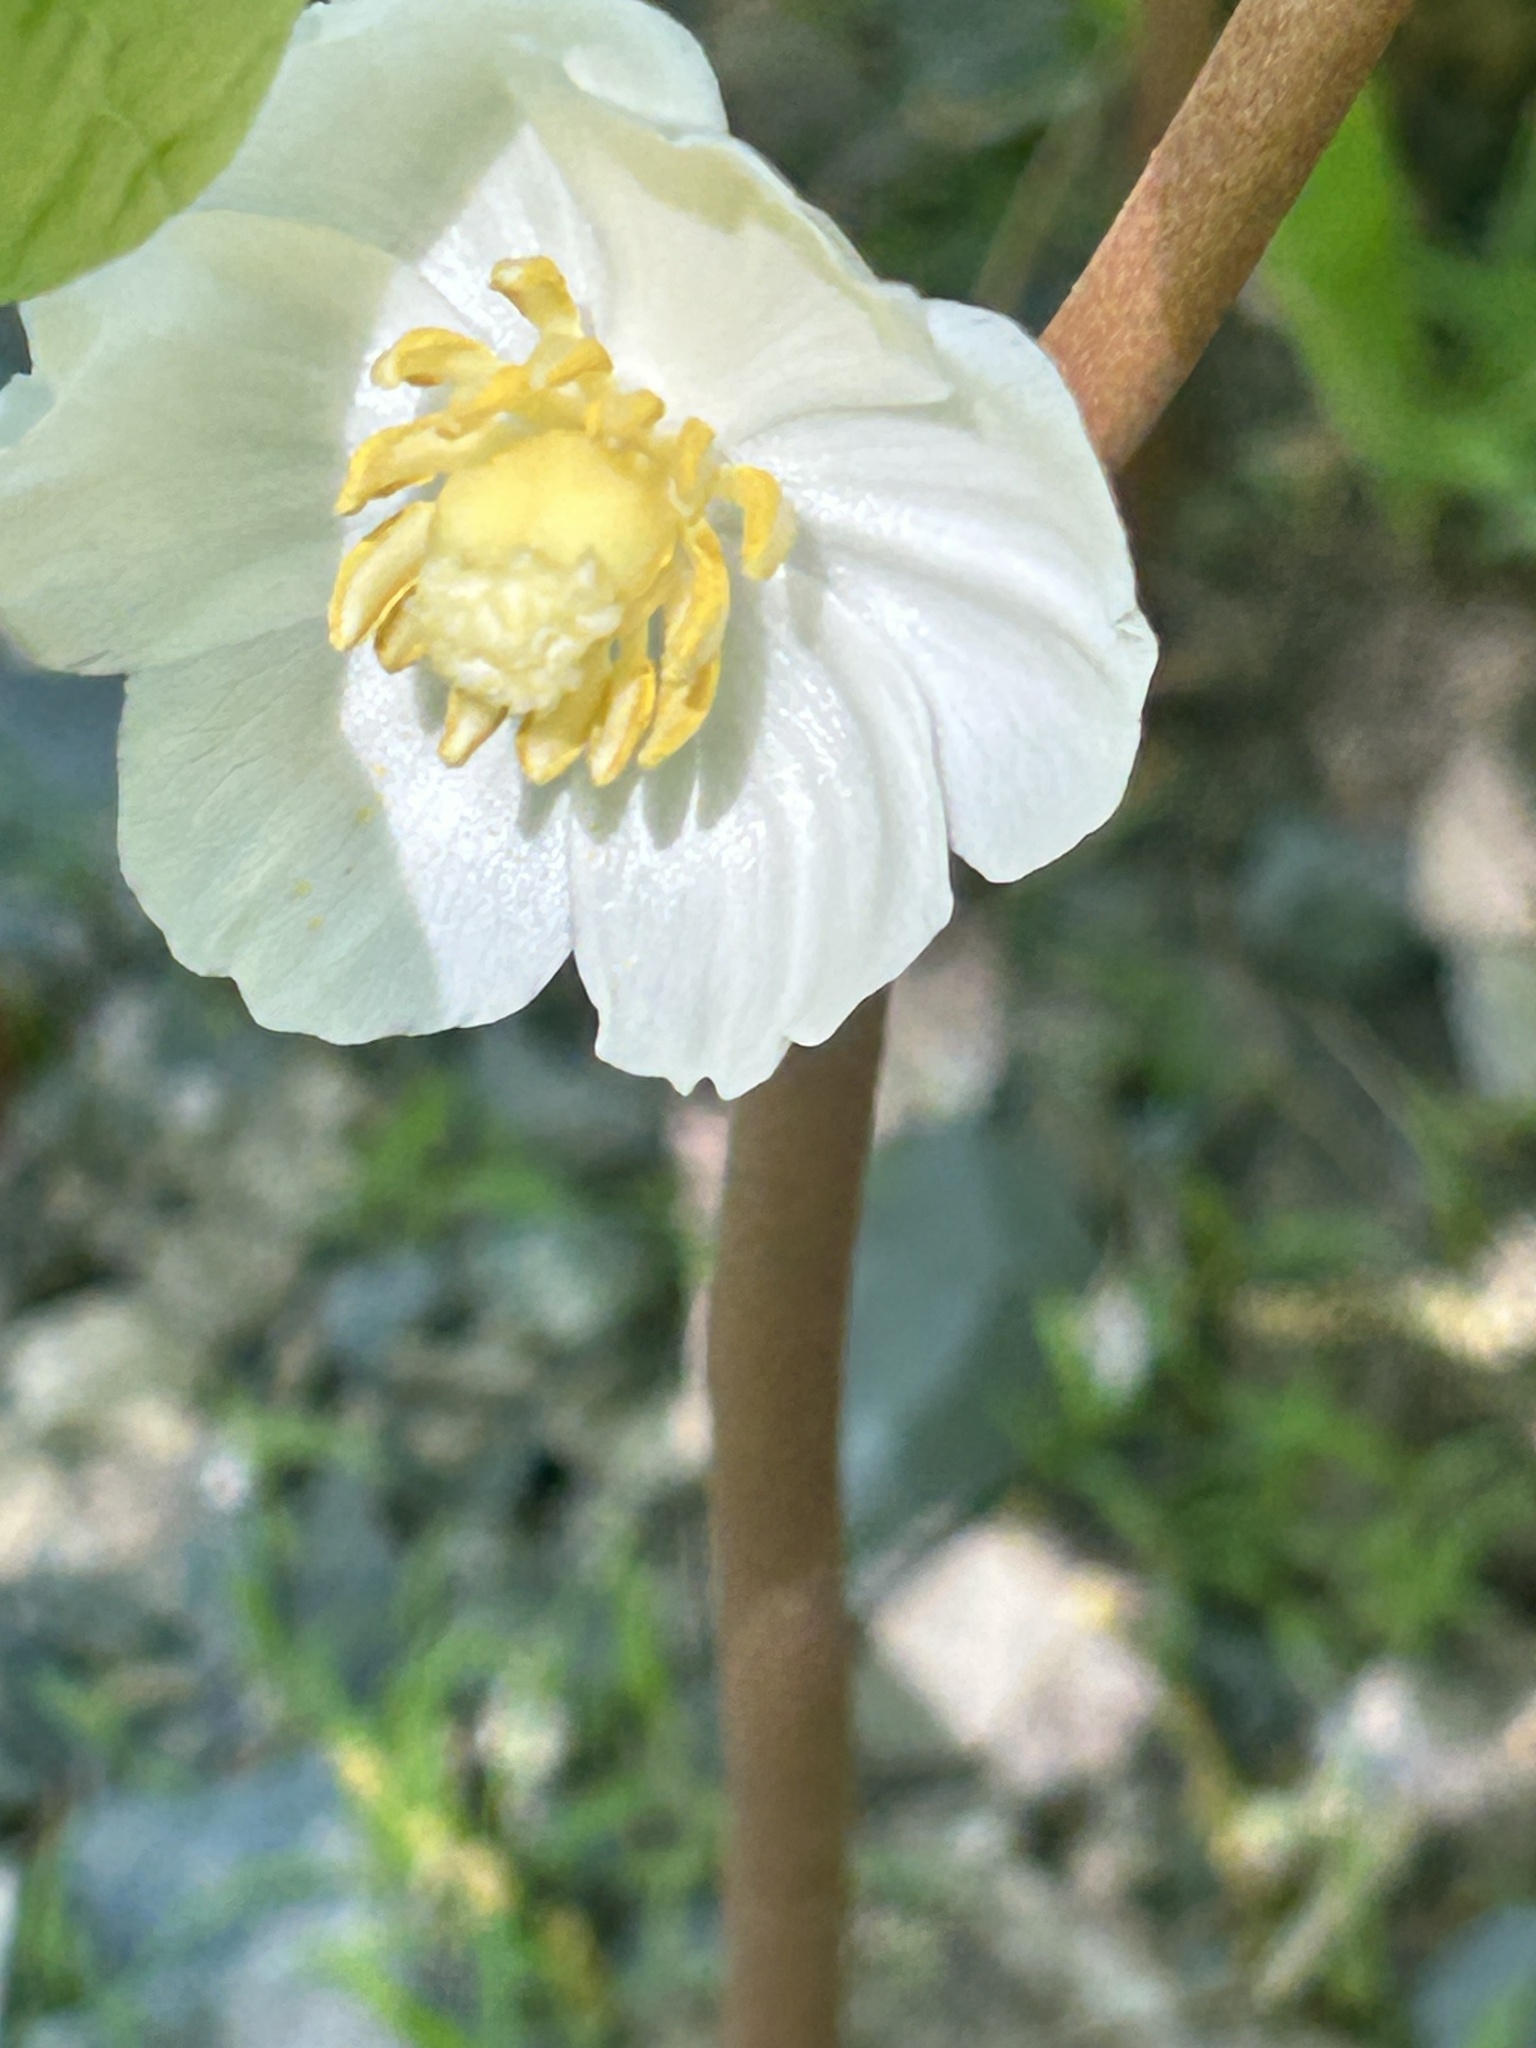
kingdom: Plantae
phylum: Tracheophyta
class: Magnoliopsida
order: Ranunculales
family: Berberidaceae
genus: Podophyllum
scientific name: Podophyllum peltatum
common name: Wild mandrake
